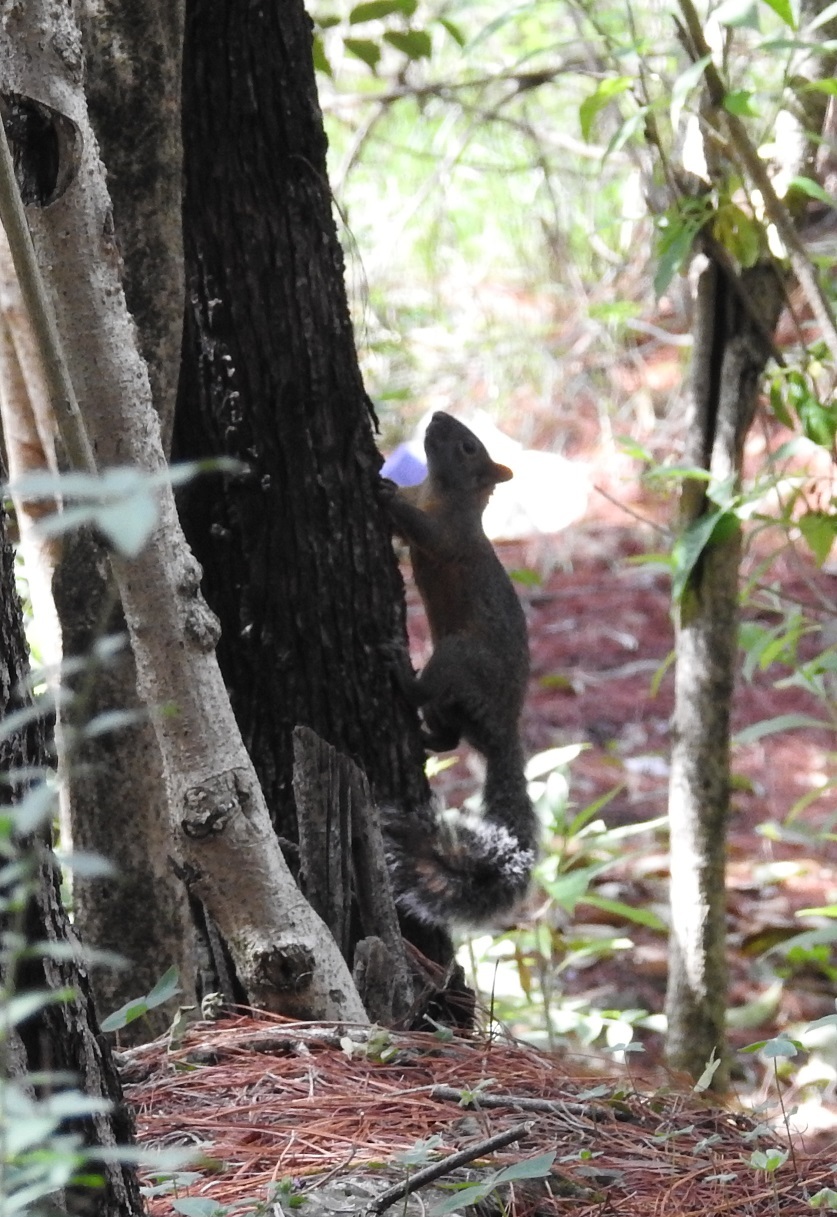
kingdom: Animalia
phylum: Chordata
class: Mammalia
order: Rodentia
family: Sciuridae
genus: Sciurus
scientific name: Sciurus aureogaster
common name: Red-bellied squirrel
